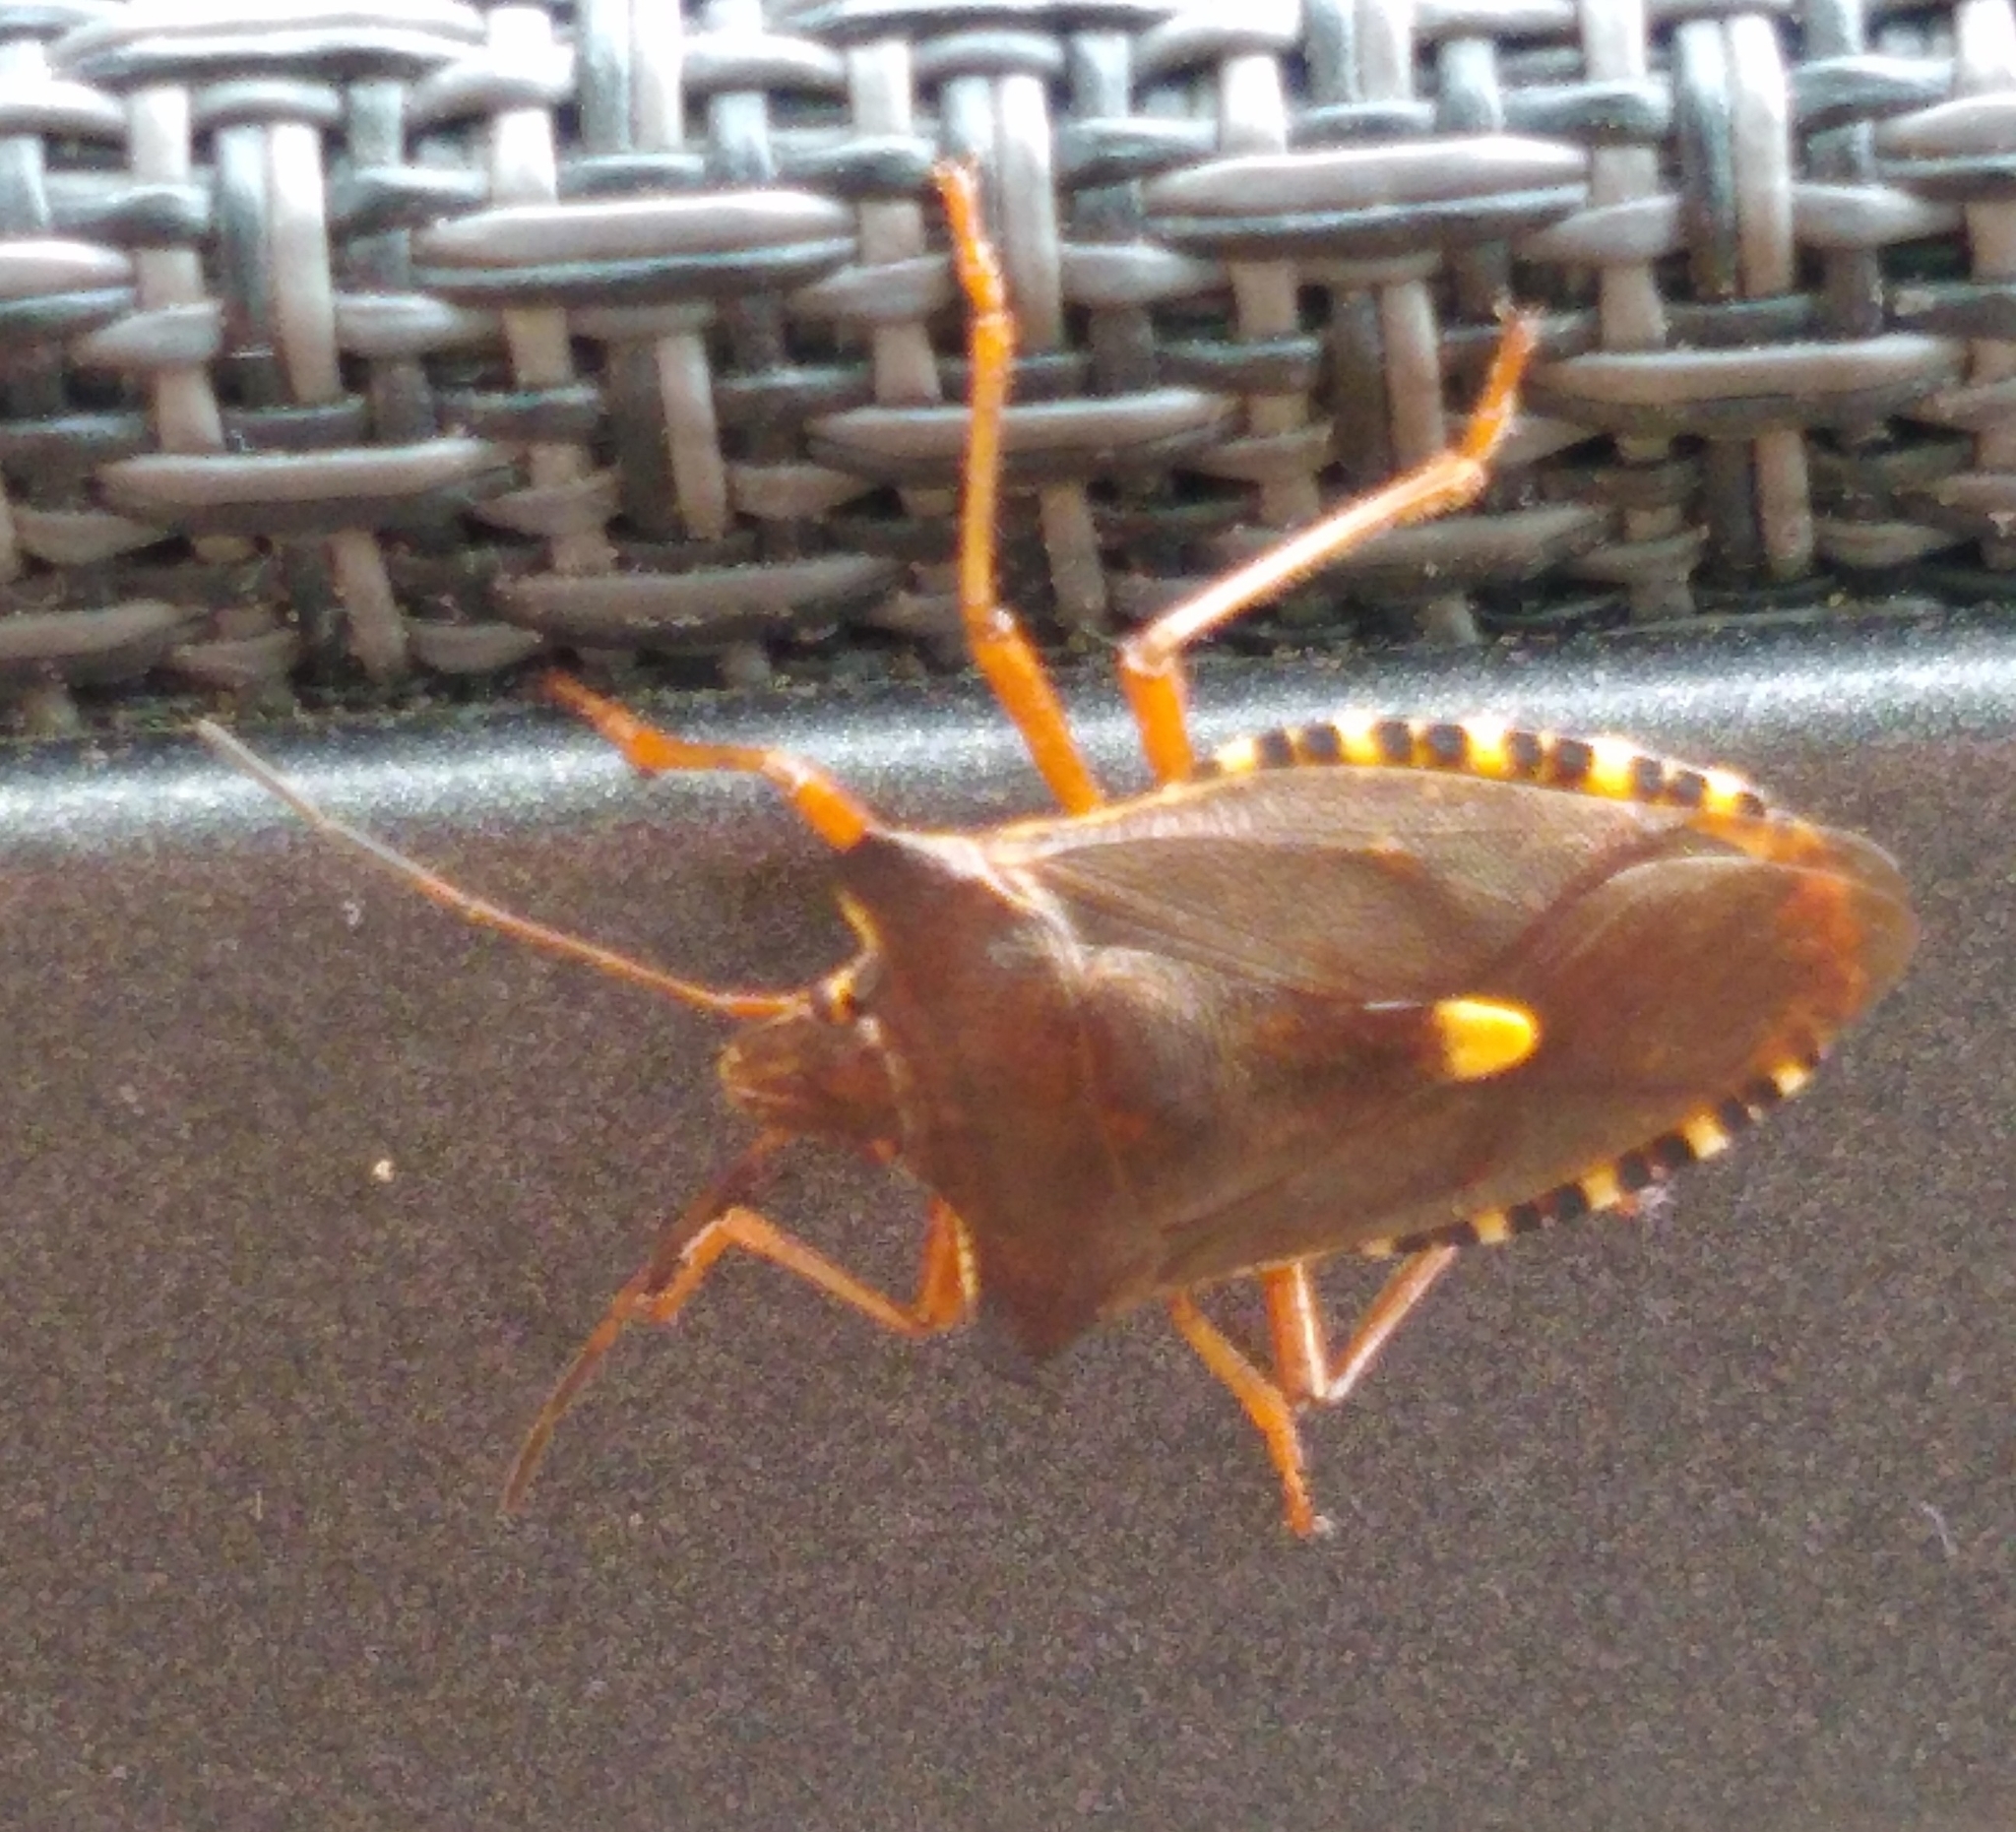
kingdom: Animalia
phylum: Arthropoda
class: Insecta
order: Hemiptera
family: Pentatomidae
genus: Pentatoma
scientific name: Pentatoma rufipes
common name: Forest bug
